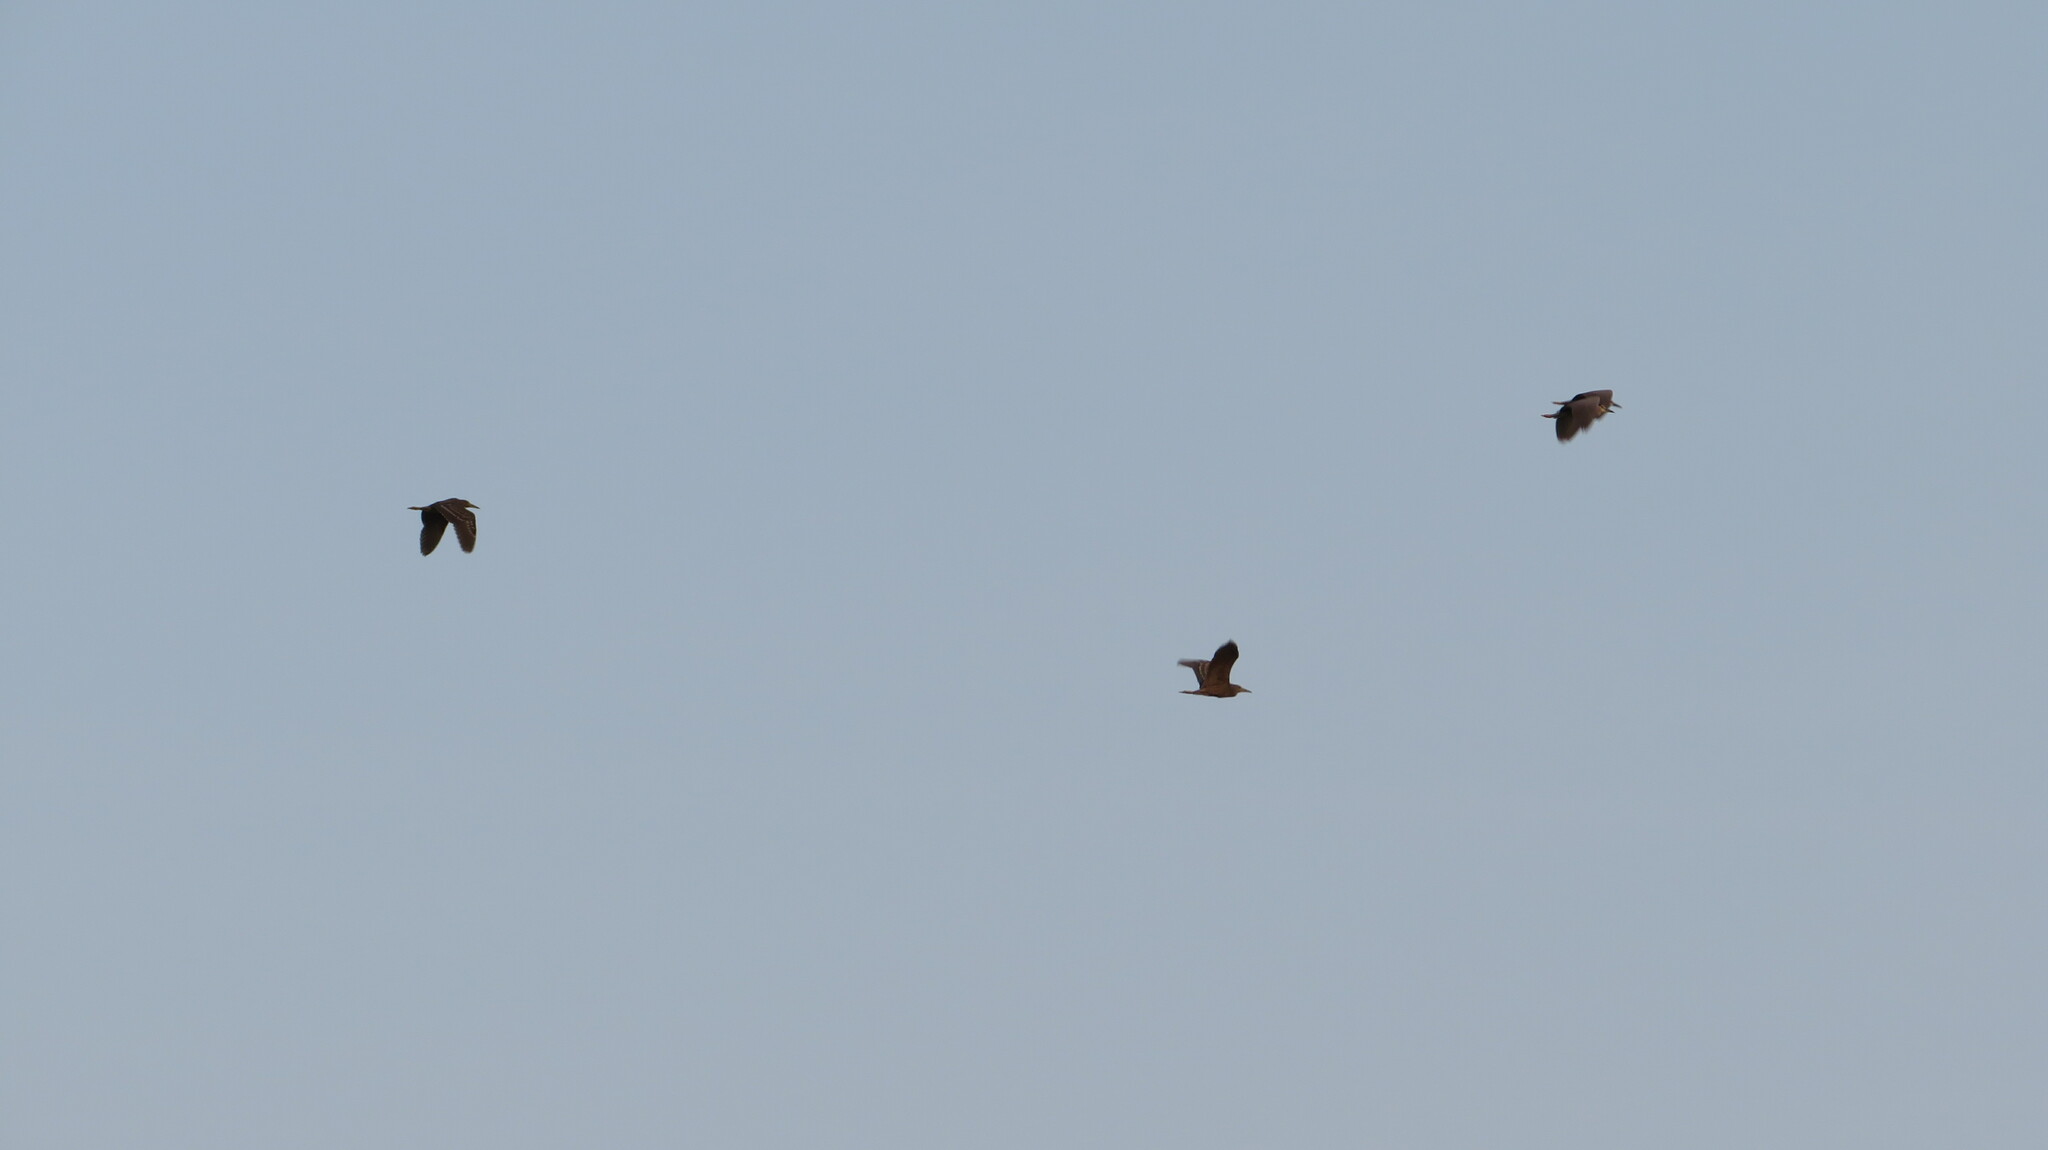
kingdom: Animalia
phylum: Chordata
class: Aves
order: Pelecaniformes
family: Ardeidae
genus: Nycticorax
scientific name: Nycticorax nycticorax
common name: Black-crowned night heron
